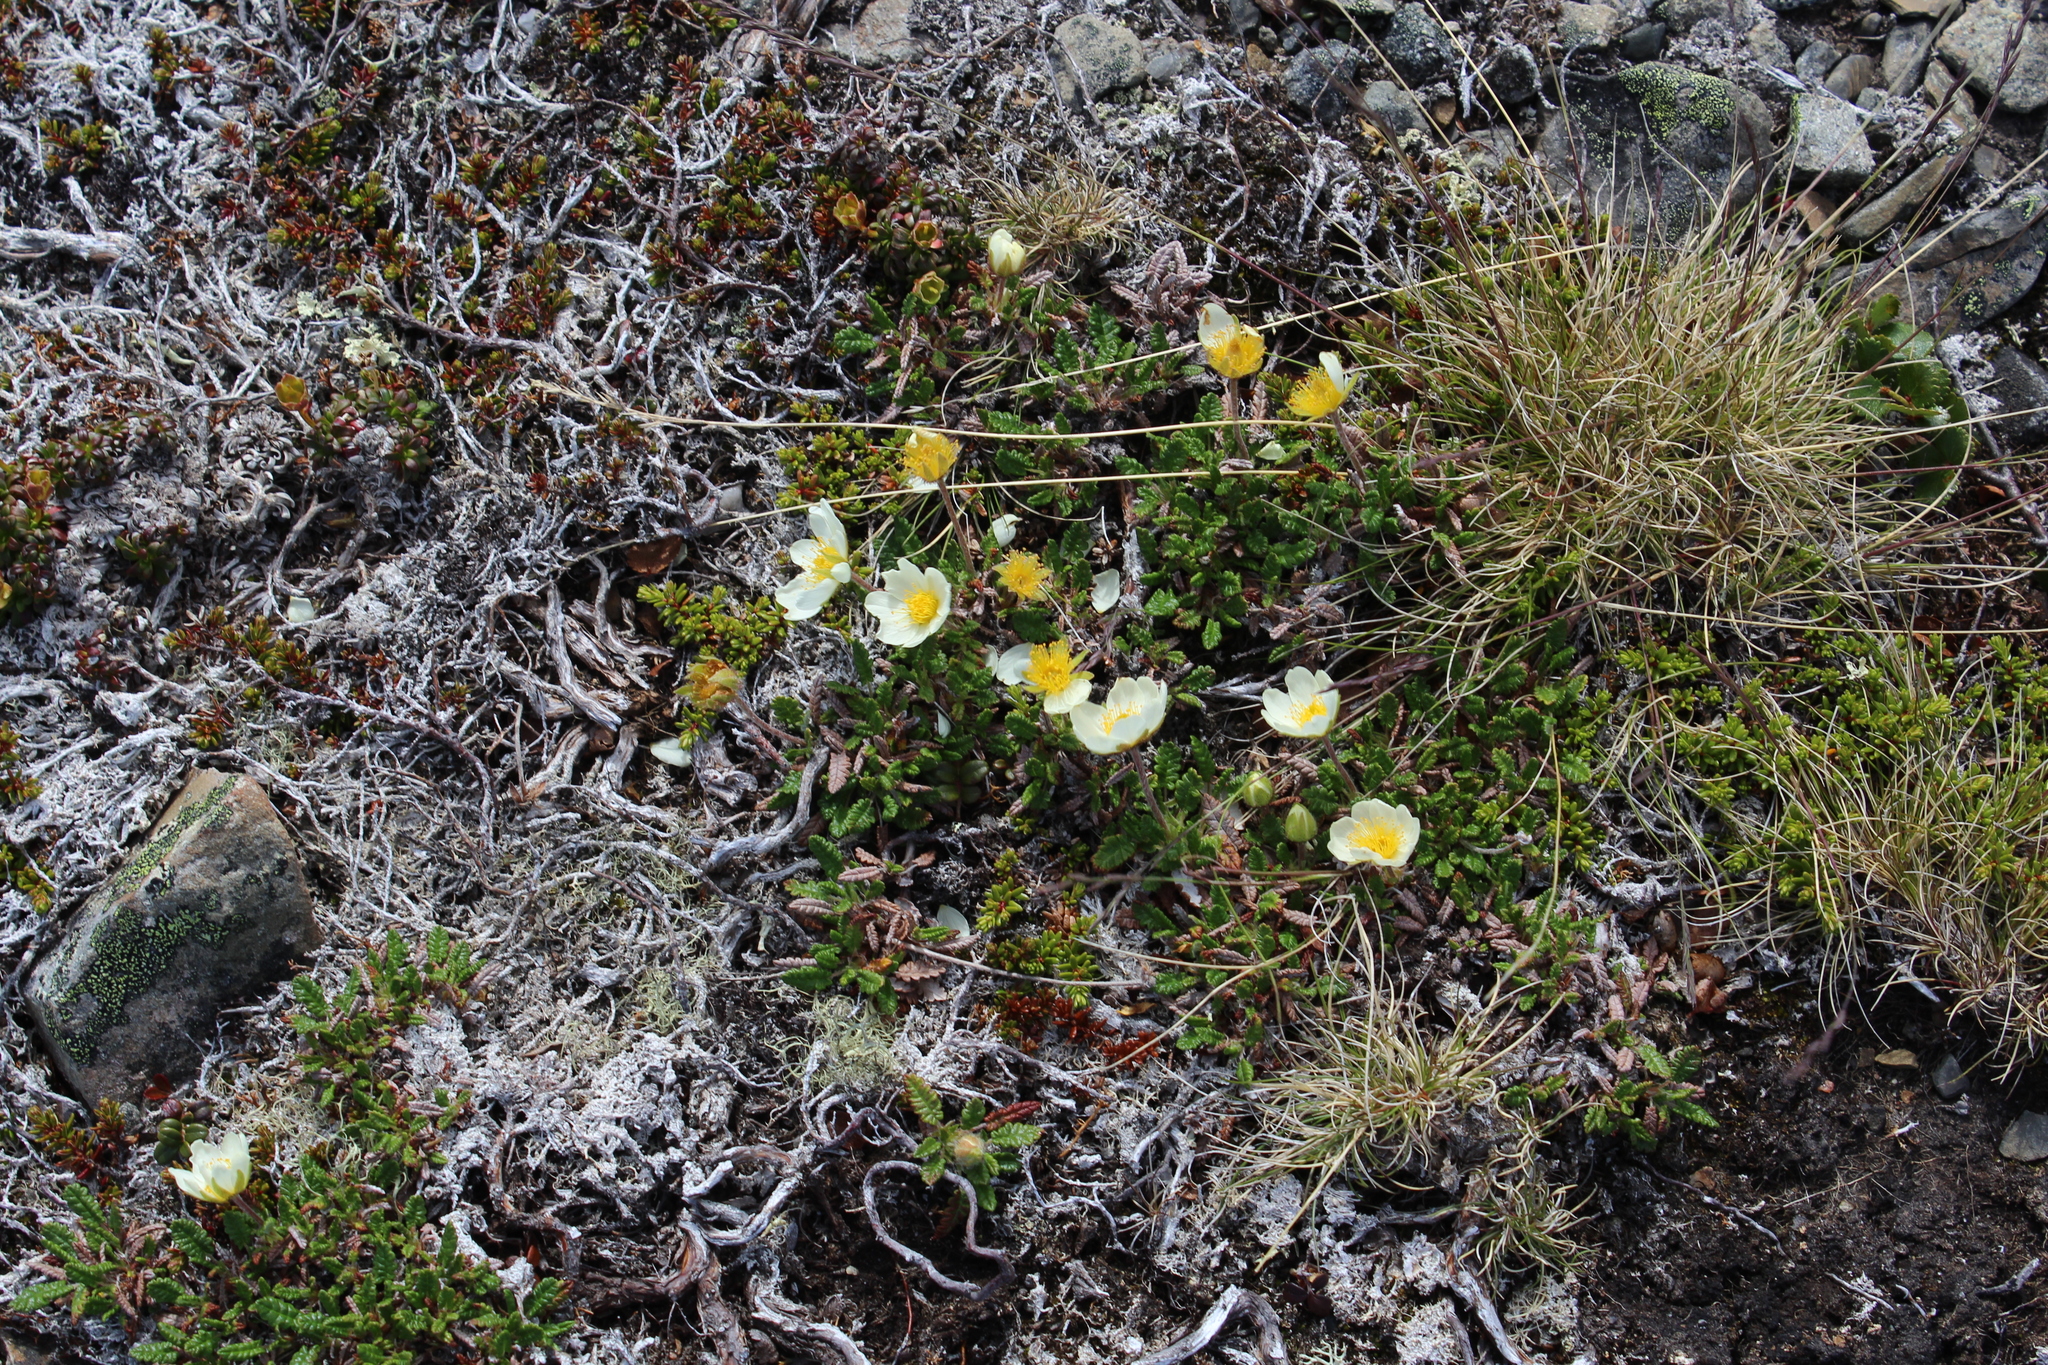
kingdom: Plantae
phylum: Tracheophyta
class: Magnoliopsida
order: Rosales
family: Rosaceae
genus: Dryas
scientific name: Dryas octopetala
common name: Eight-petal mountain-avens
